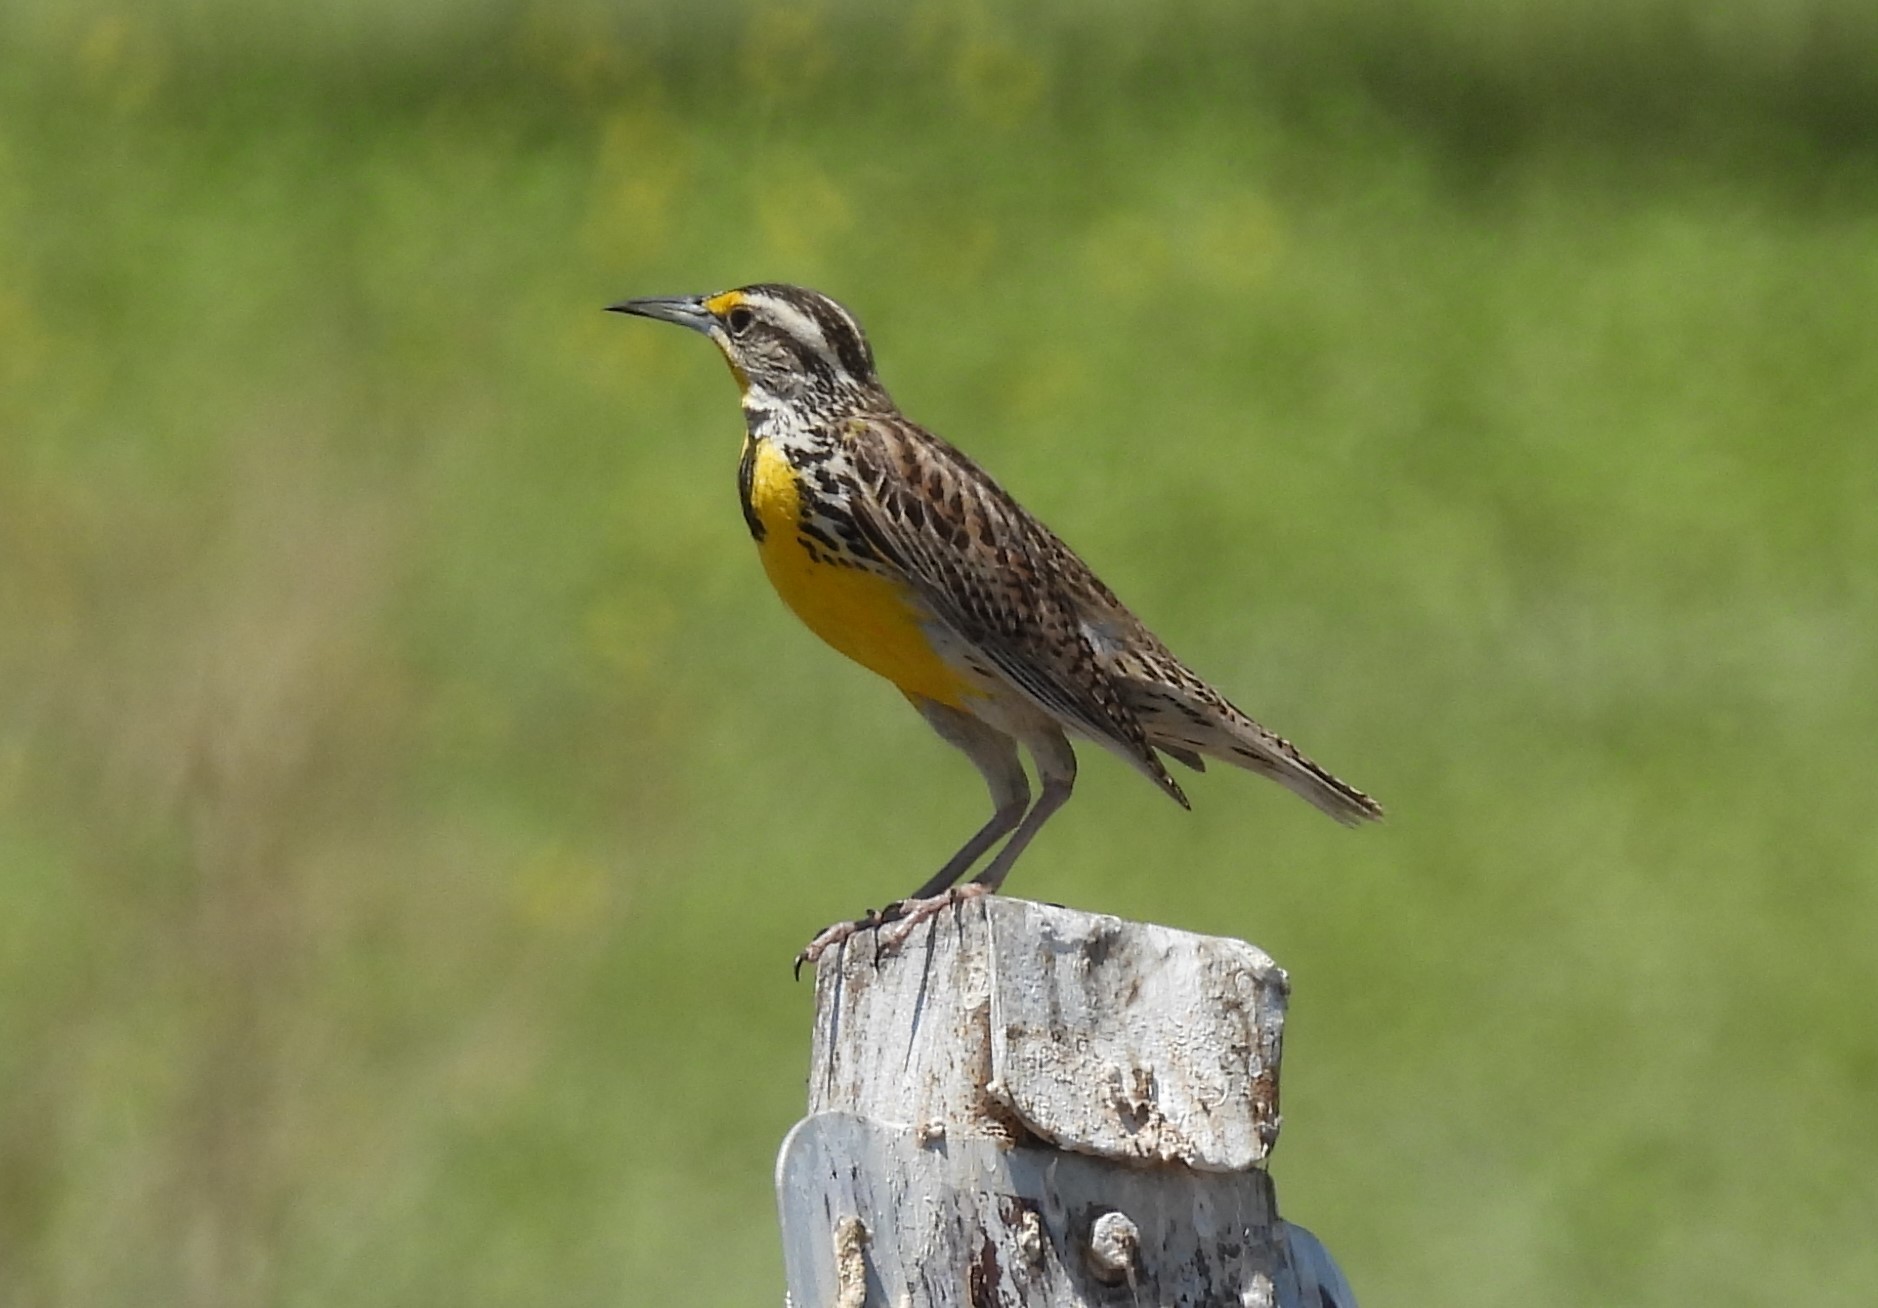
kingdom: Animalia
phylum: Chordata
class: Aves
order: Passeriformes
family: Icteridae
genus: Sturnella
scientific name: Sturnella neglecta
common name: Western meadowlark
